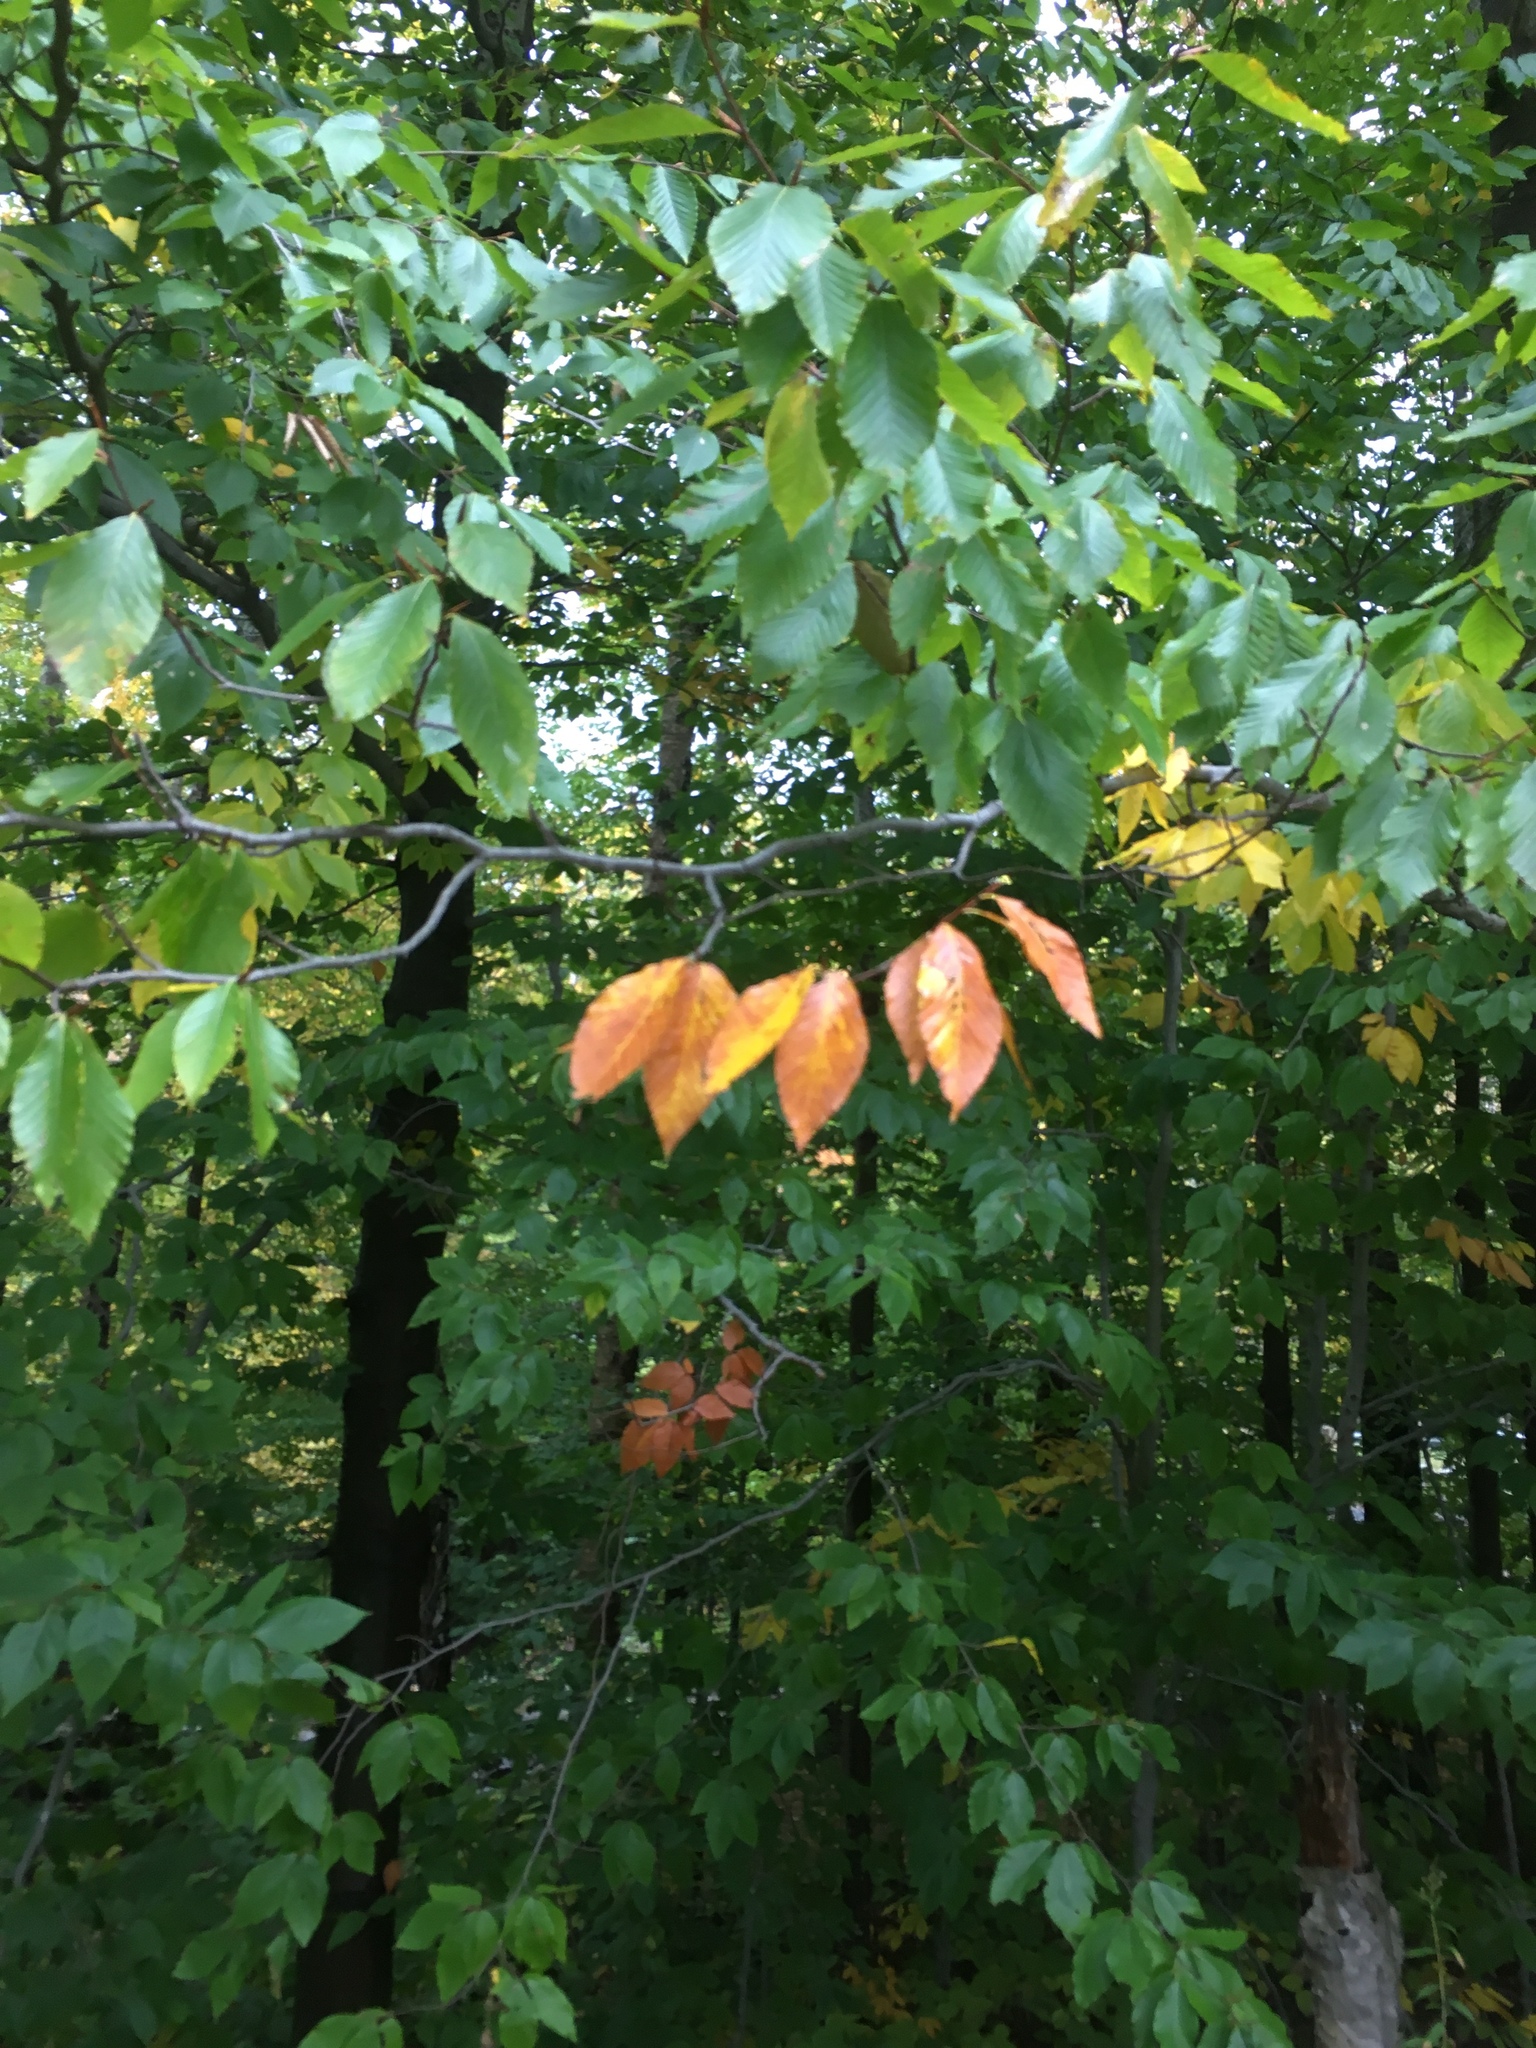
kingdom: Plantae
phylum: Tracheophyta
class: Magnoliopsida
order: Fagales
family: Fagaceae
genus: Fagus
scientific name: Fagus grandifolia
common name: American beech
